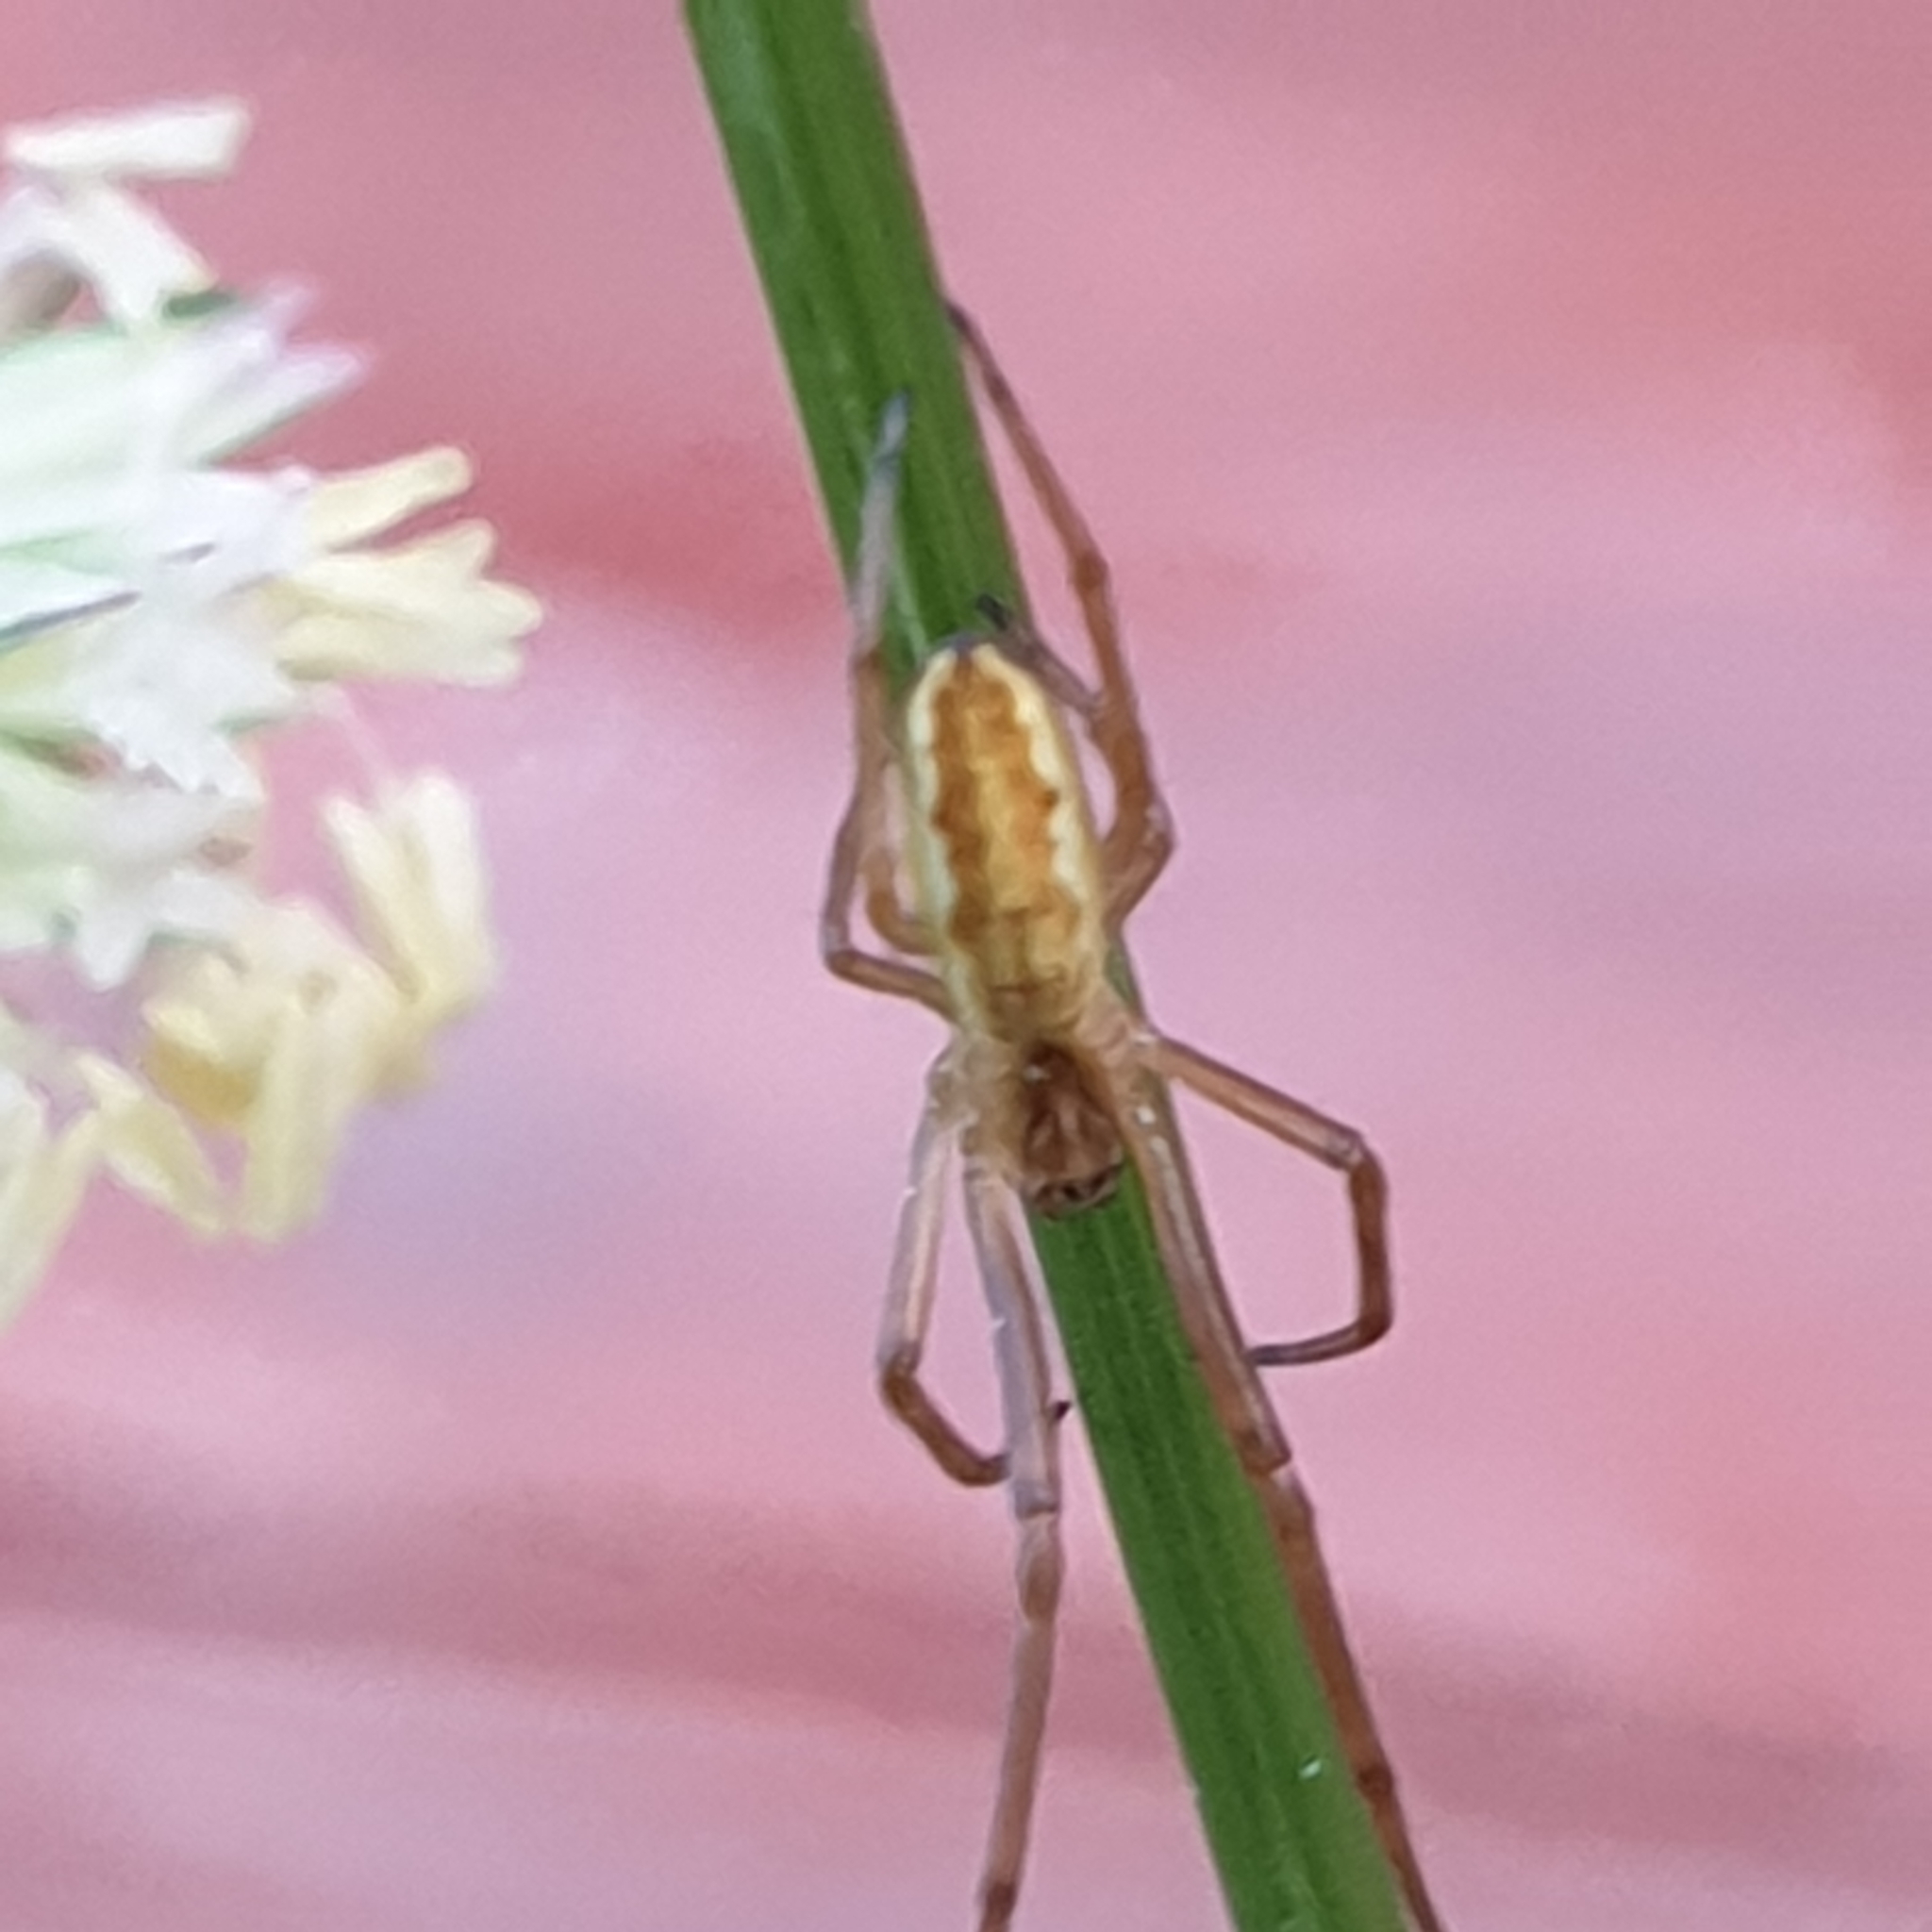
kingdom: Animalia
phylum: Arthropoda
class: Arachnida
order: Araneae
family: Tetragnathidae
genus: Tetragnatha
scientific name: Tetragnatha extensa
